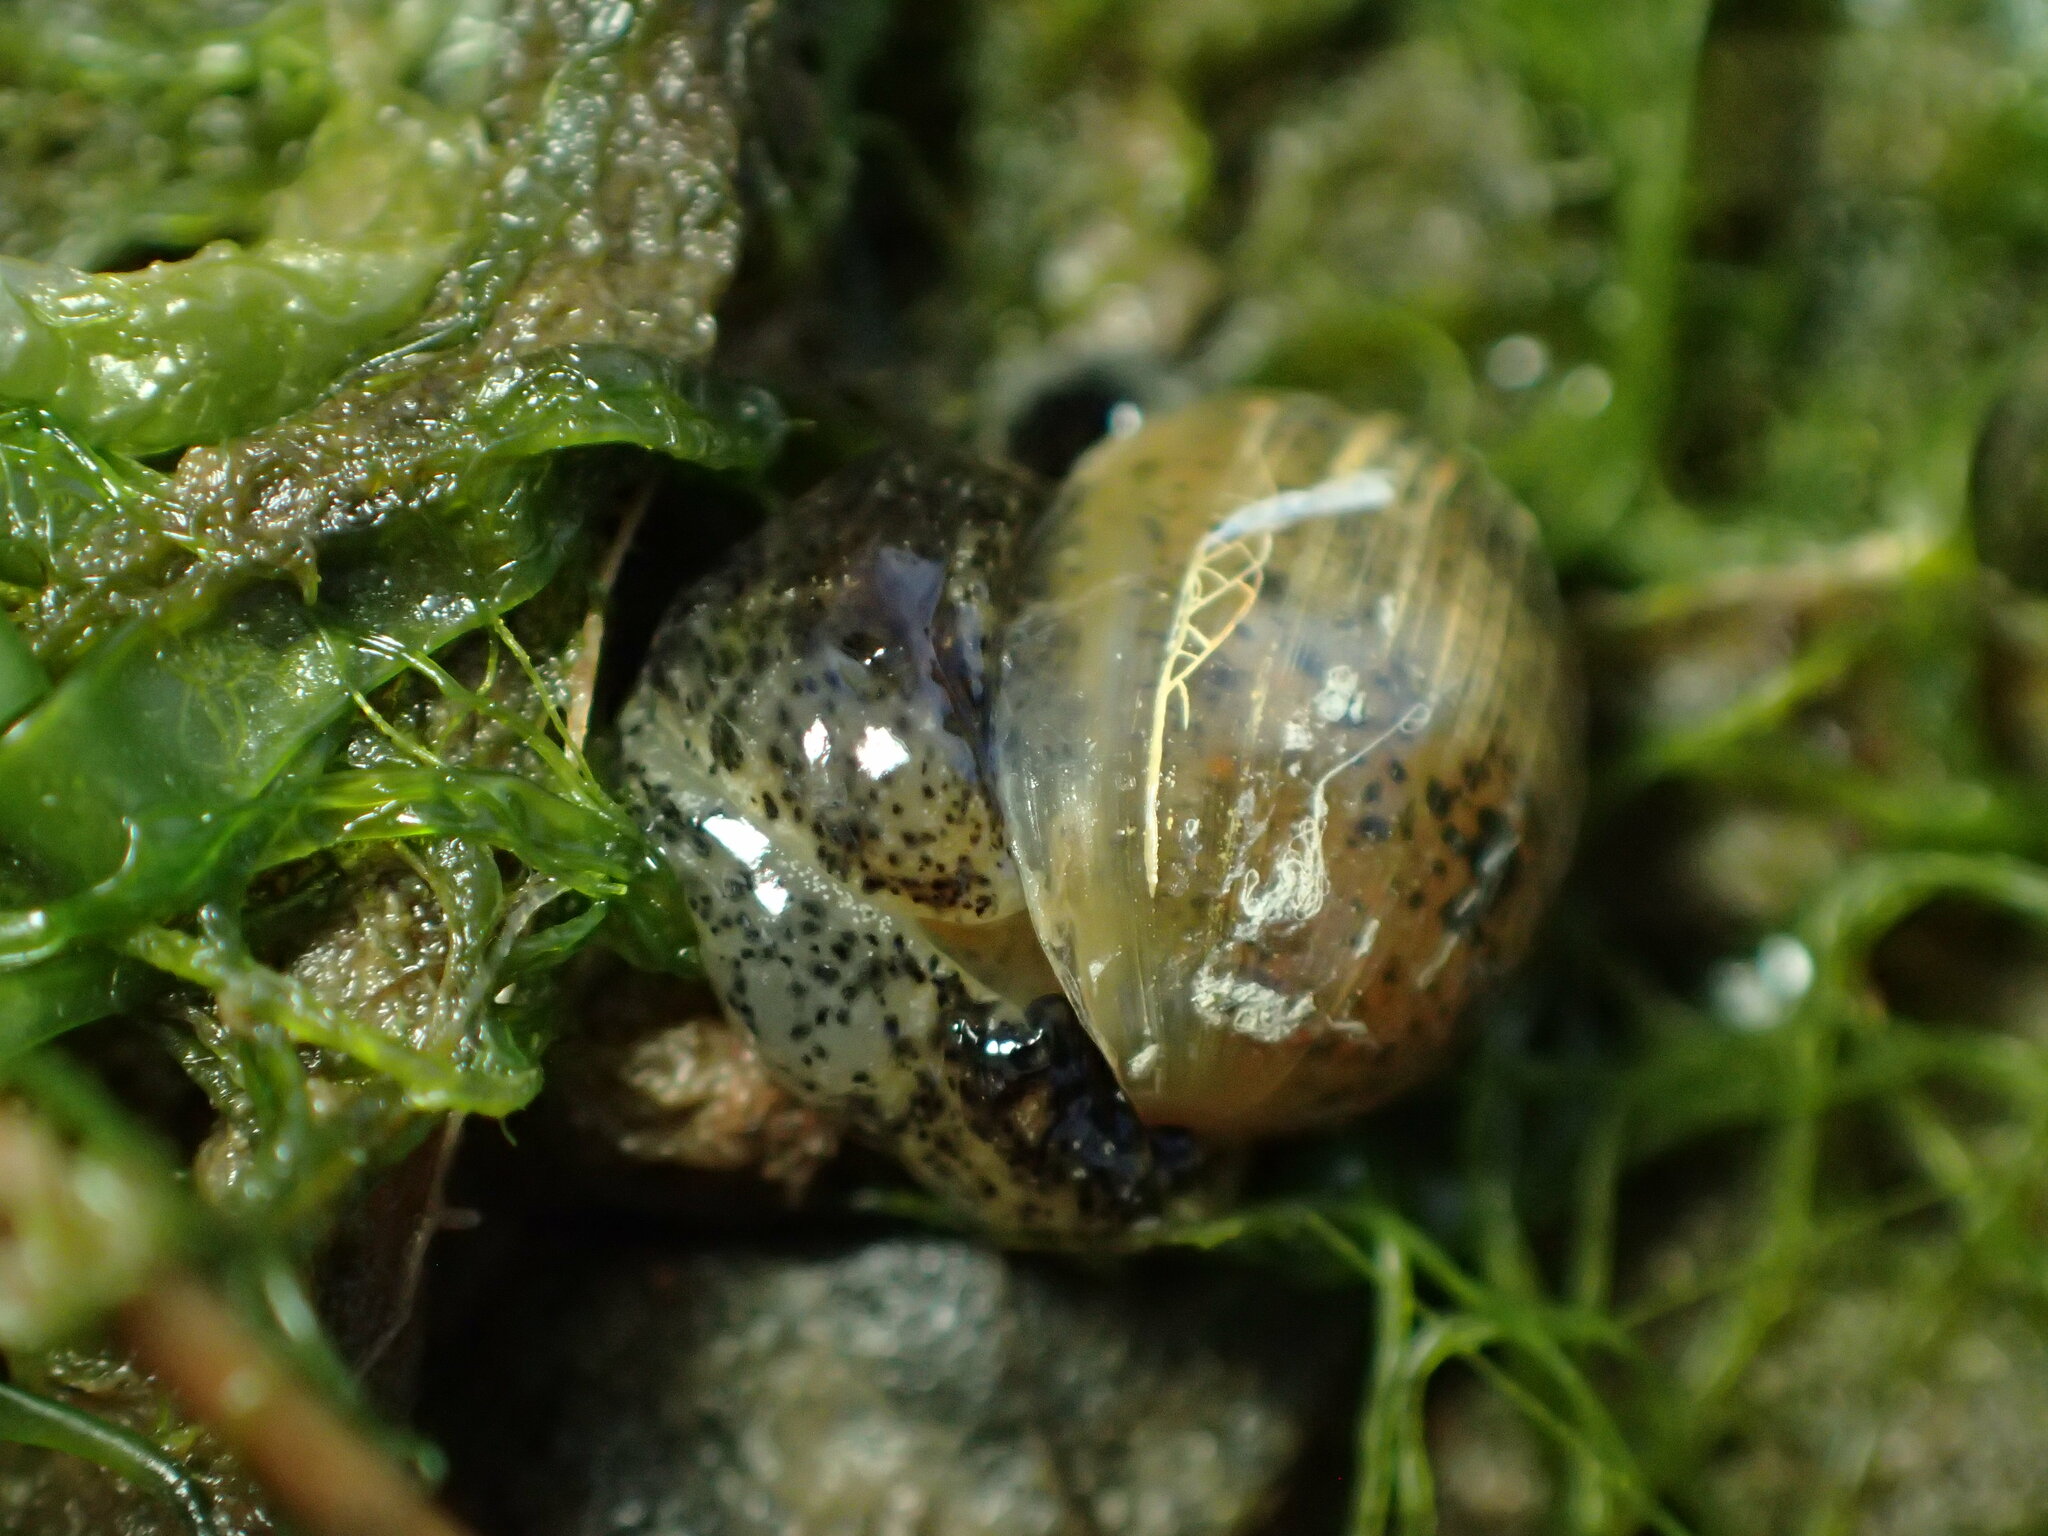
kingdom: Animalia
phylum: Mollusca
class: Gastropoda
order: Cephalaspidea
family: Haminoeidae
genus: Haloa
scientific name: Haloa japonica
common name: Japanese bubble snail
